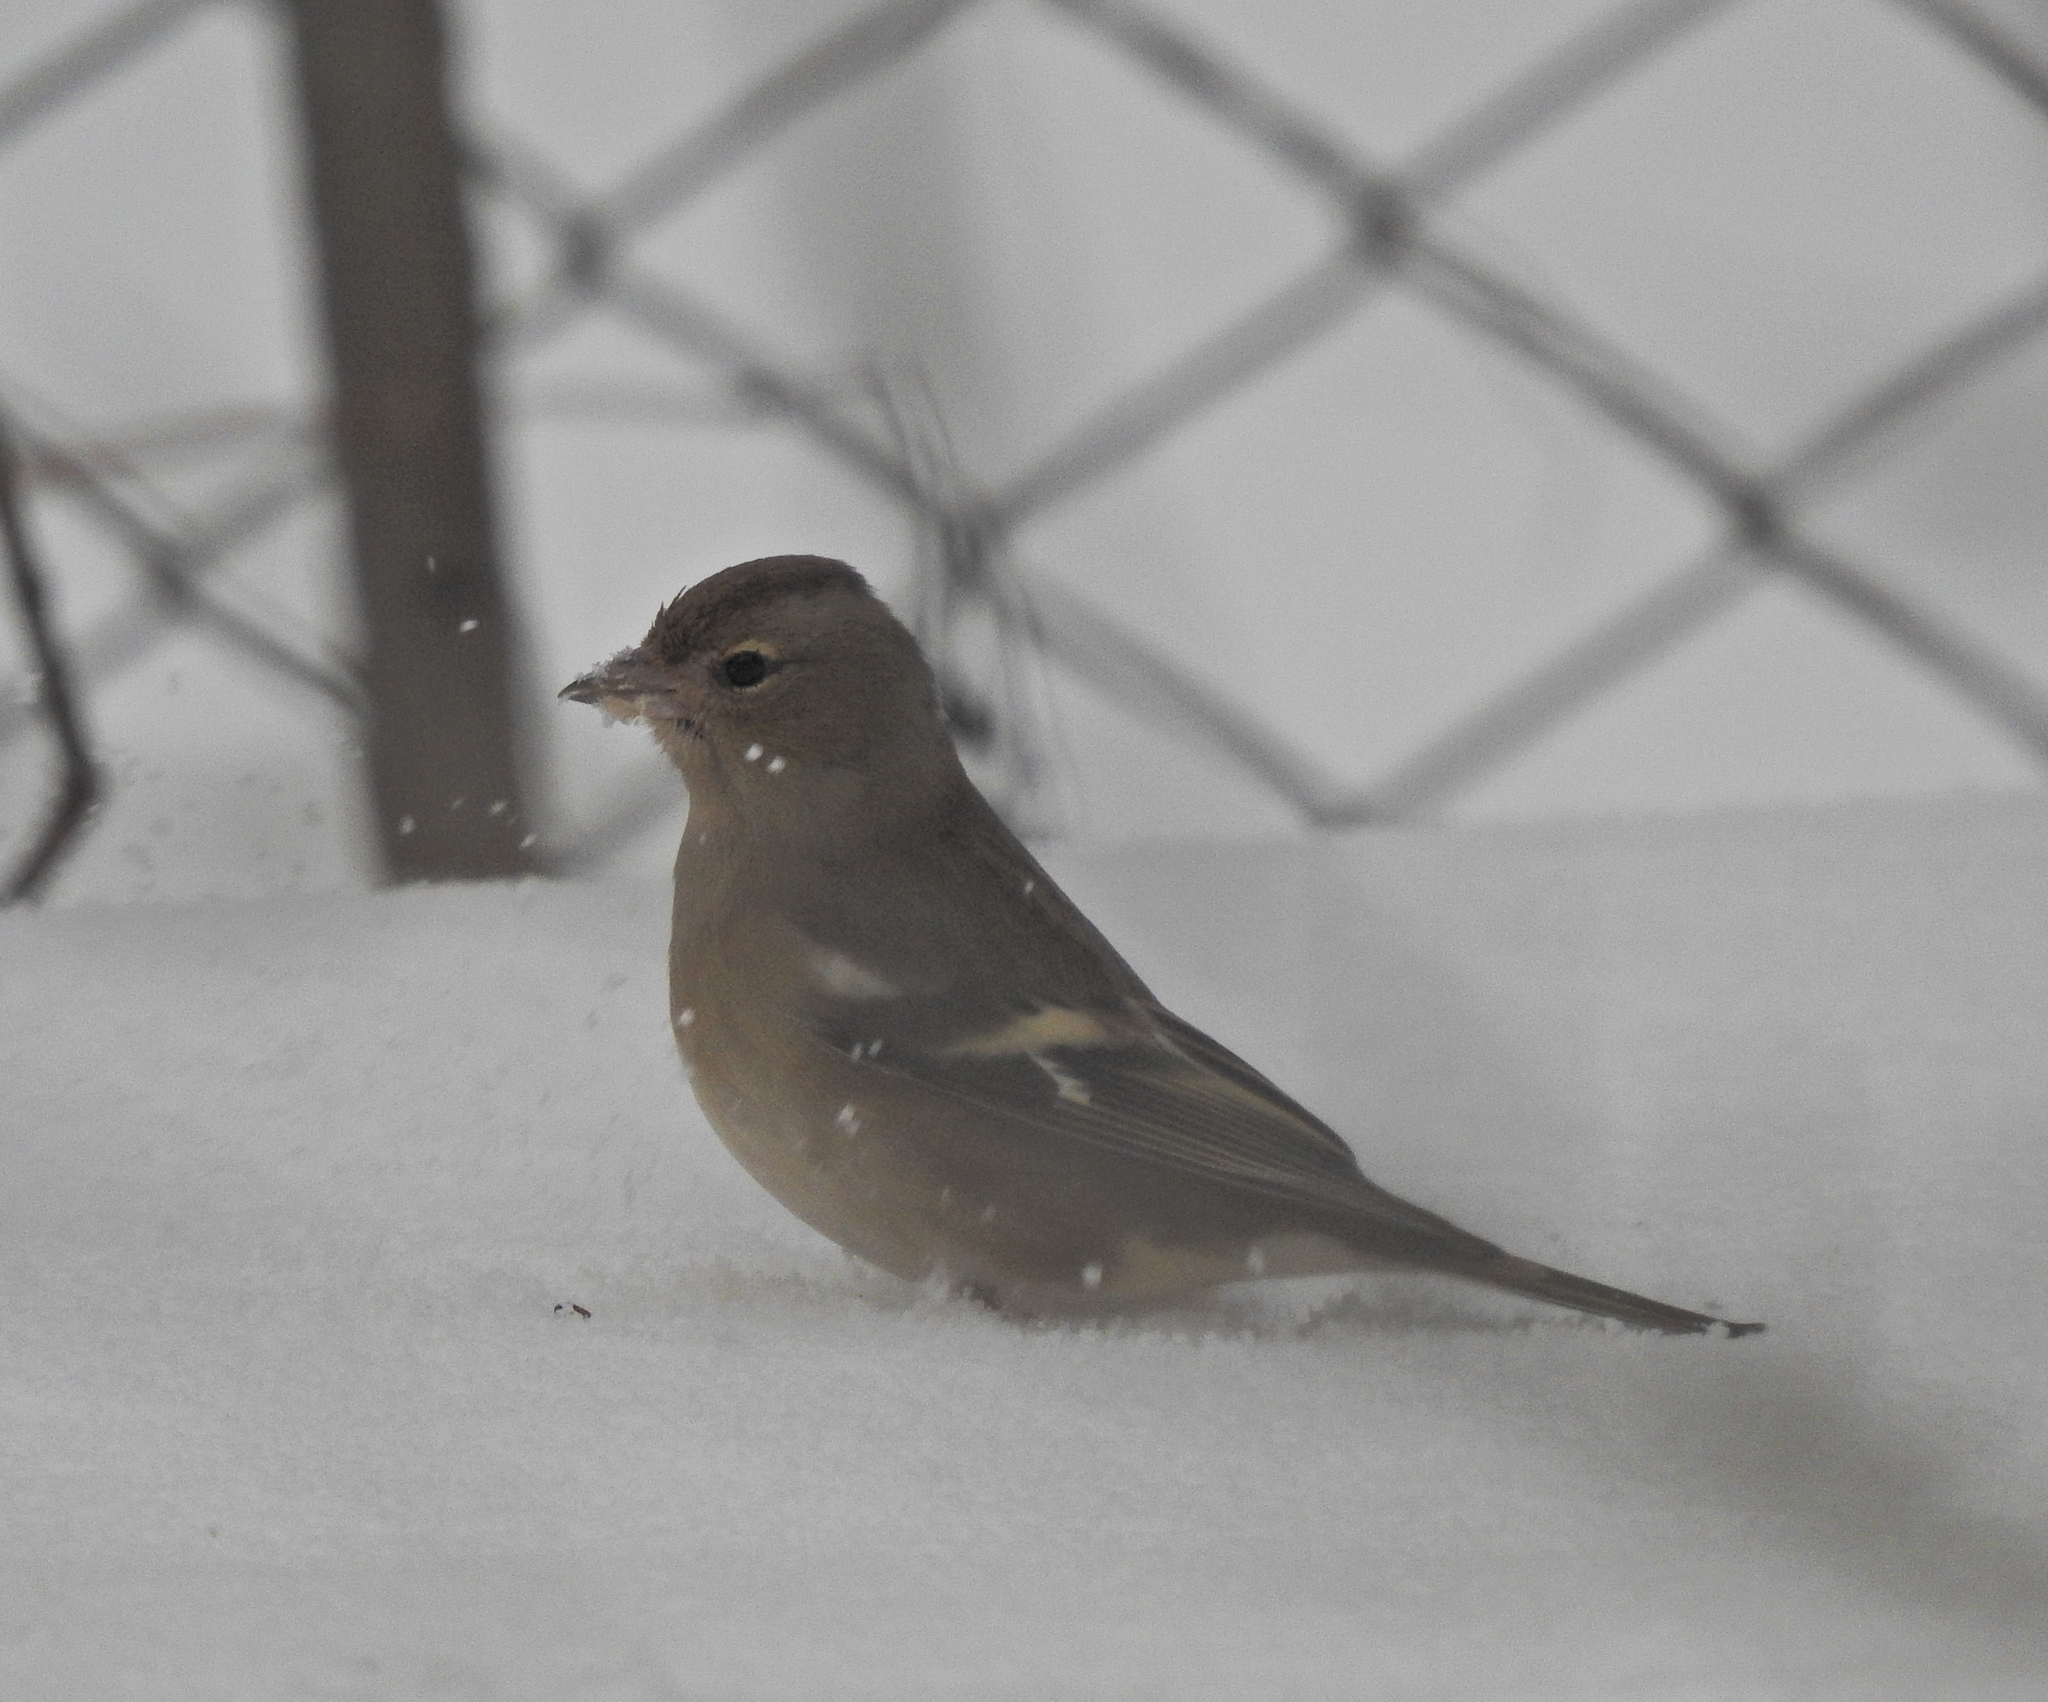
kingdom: Animalia
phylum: Chordata
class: Aves
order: Passeriformes
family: Fringillidae
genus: Fringilla
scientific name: Fringilla coelebs
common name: Common chaffinch
